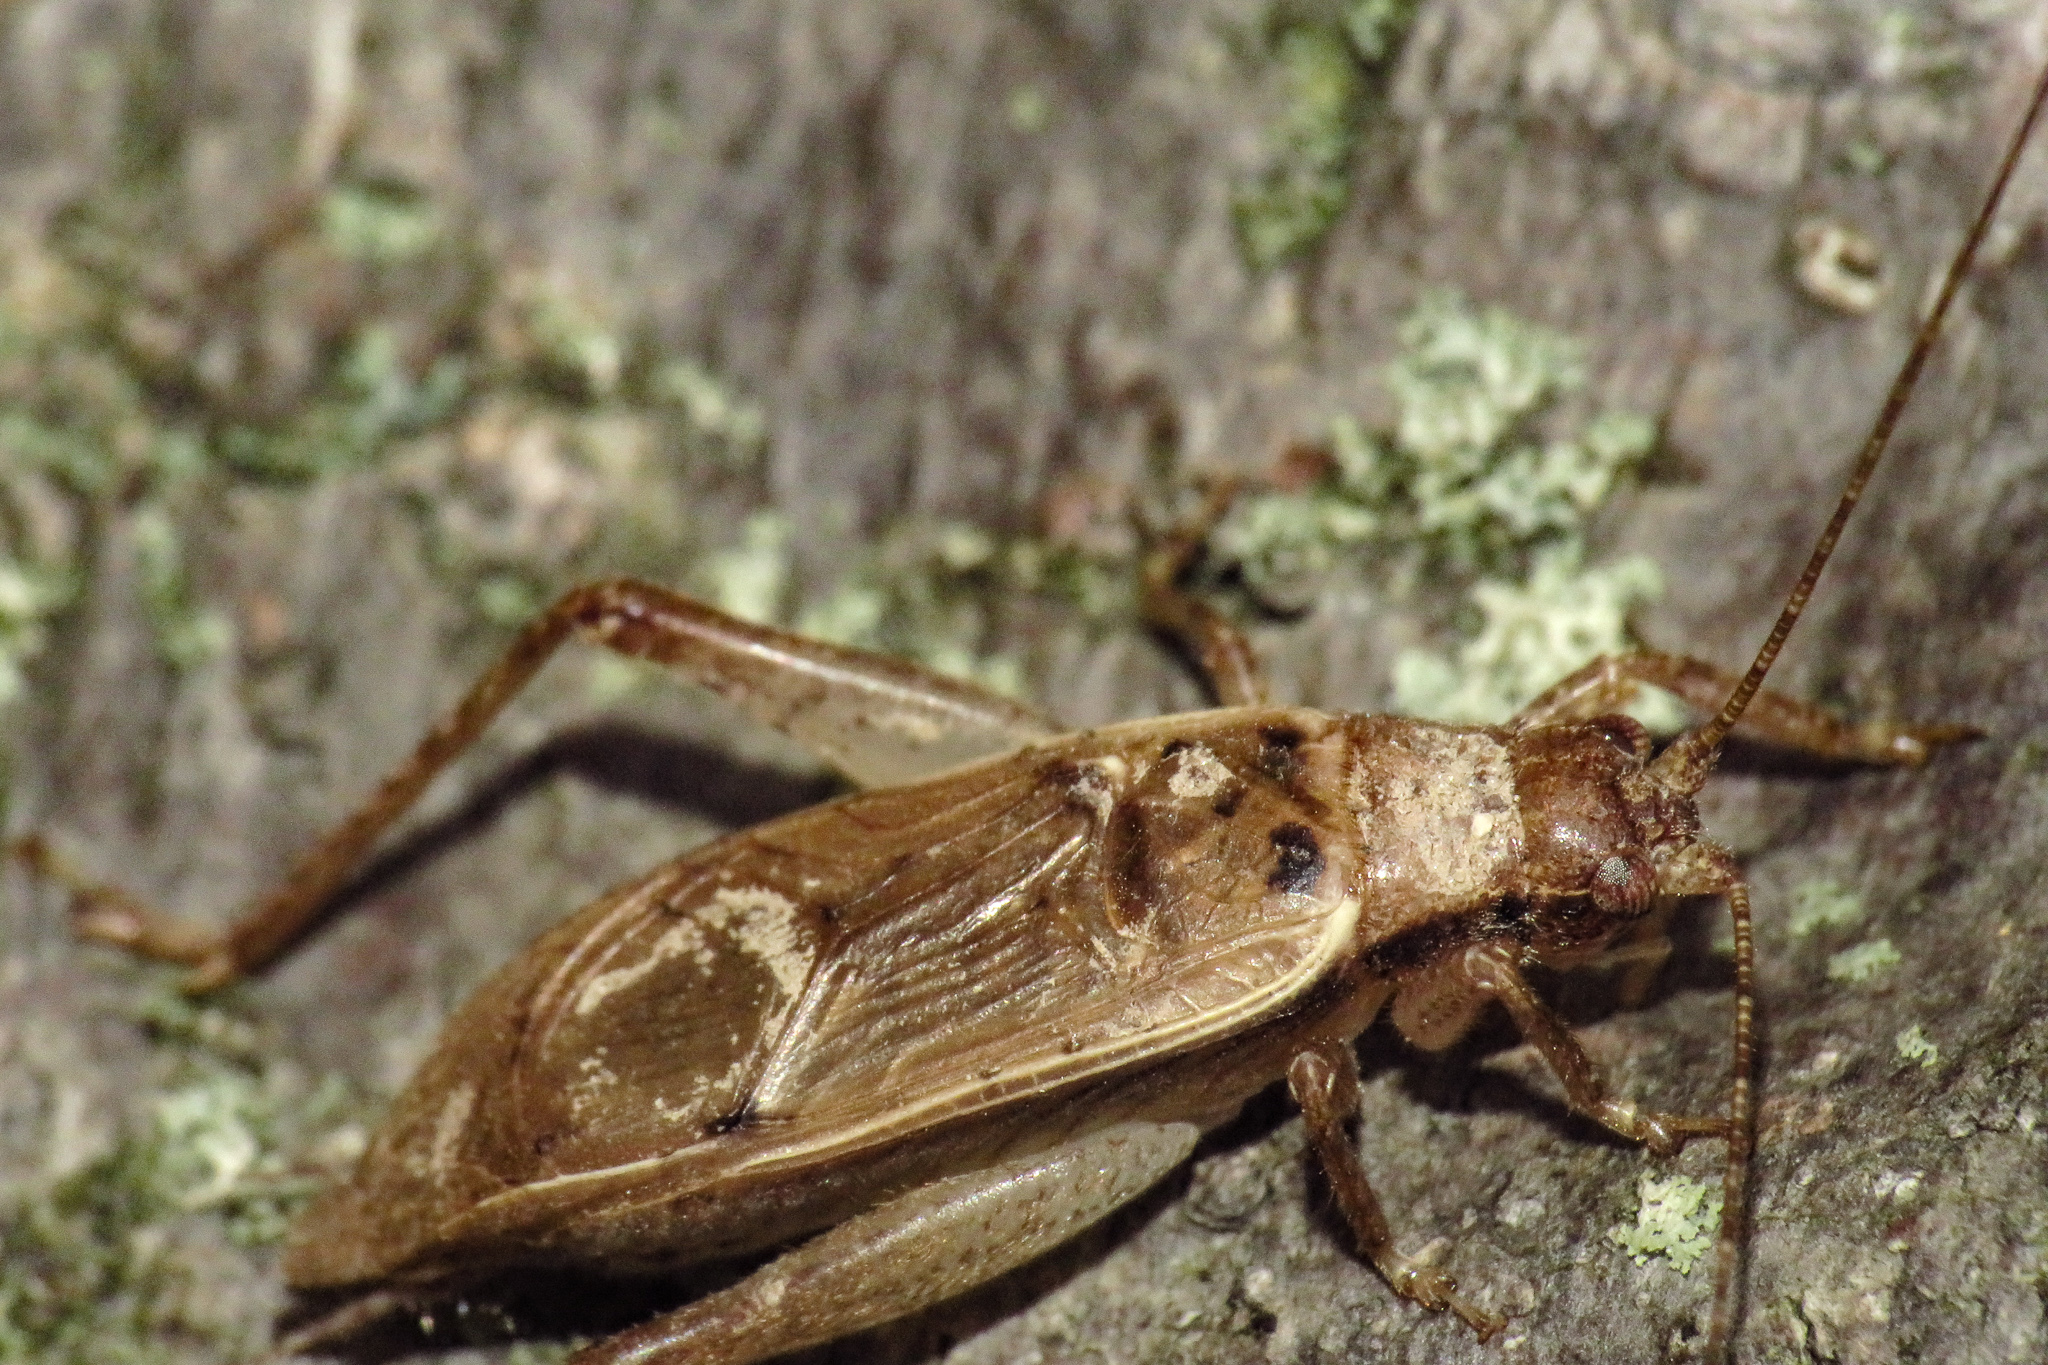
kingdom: Animalia
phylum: Arthropoda
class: Insecta
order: Orthoptera
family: Gryllidae
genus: Hapithus
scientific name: Hapithus saltator
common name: Jumping bush cricket
